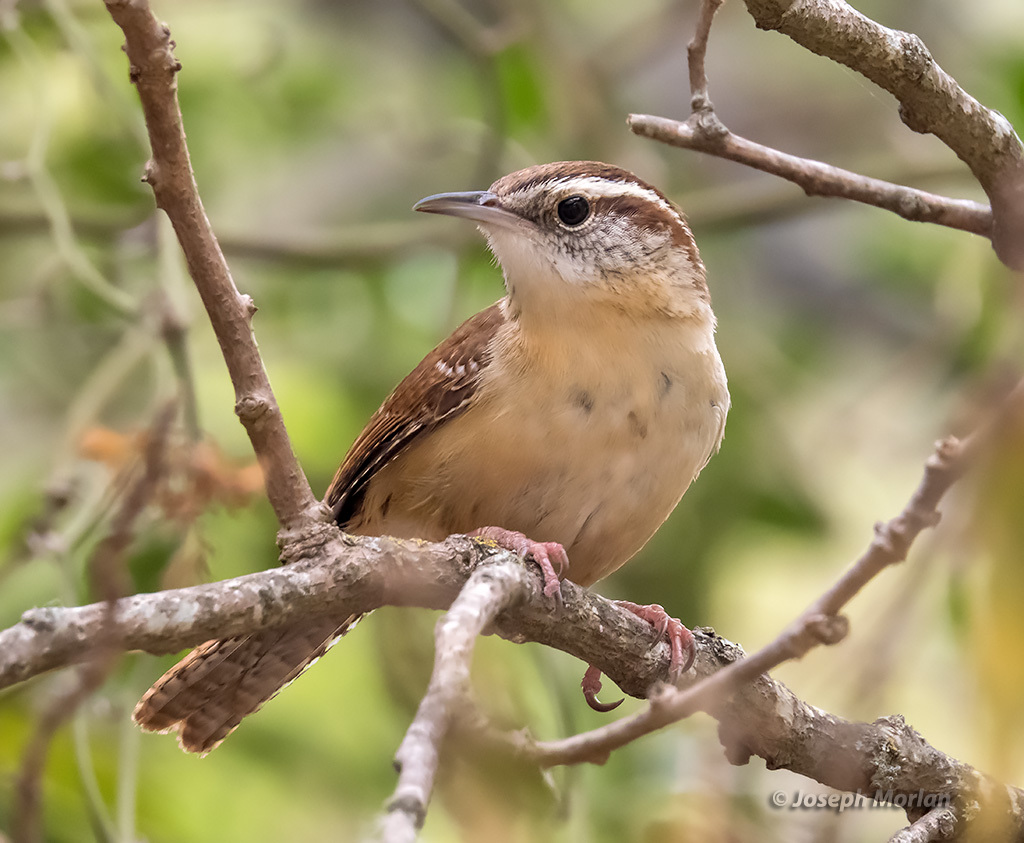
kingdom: Animalia
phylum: Chordata
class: Aves
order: Passeriformes
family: Troglodytidae
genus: Thryothorus
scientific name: Thryothorus ludovicianus
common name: Carolina wren
